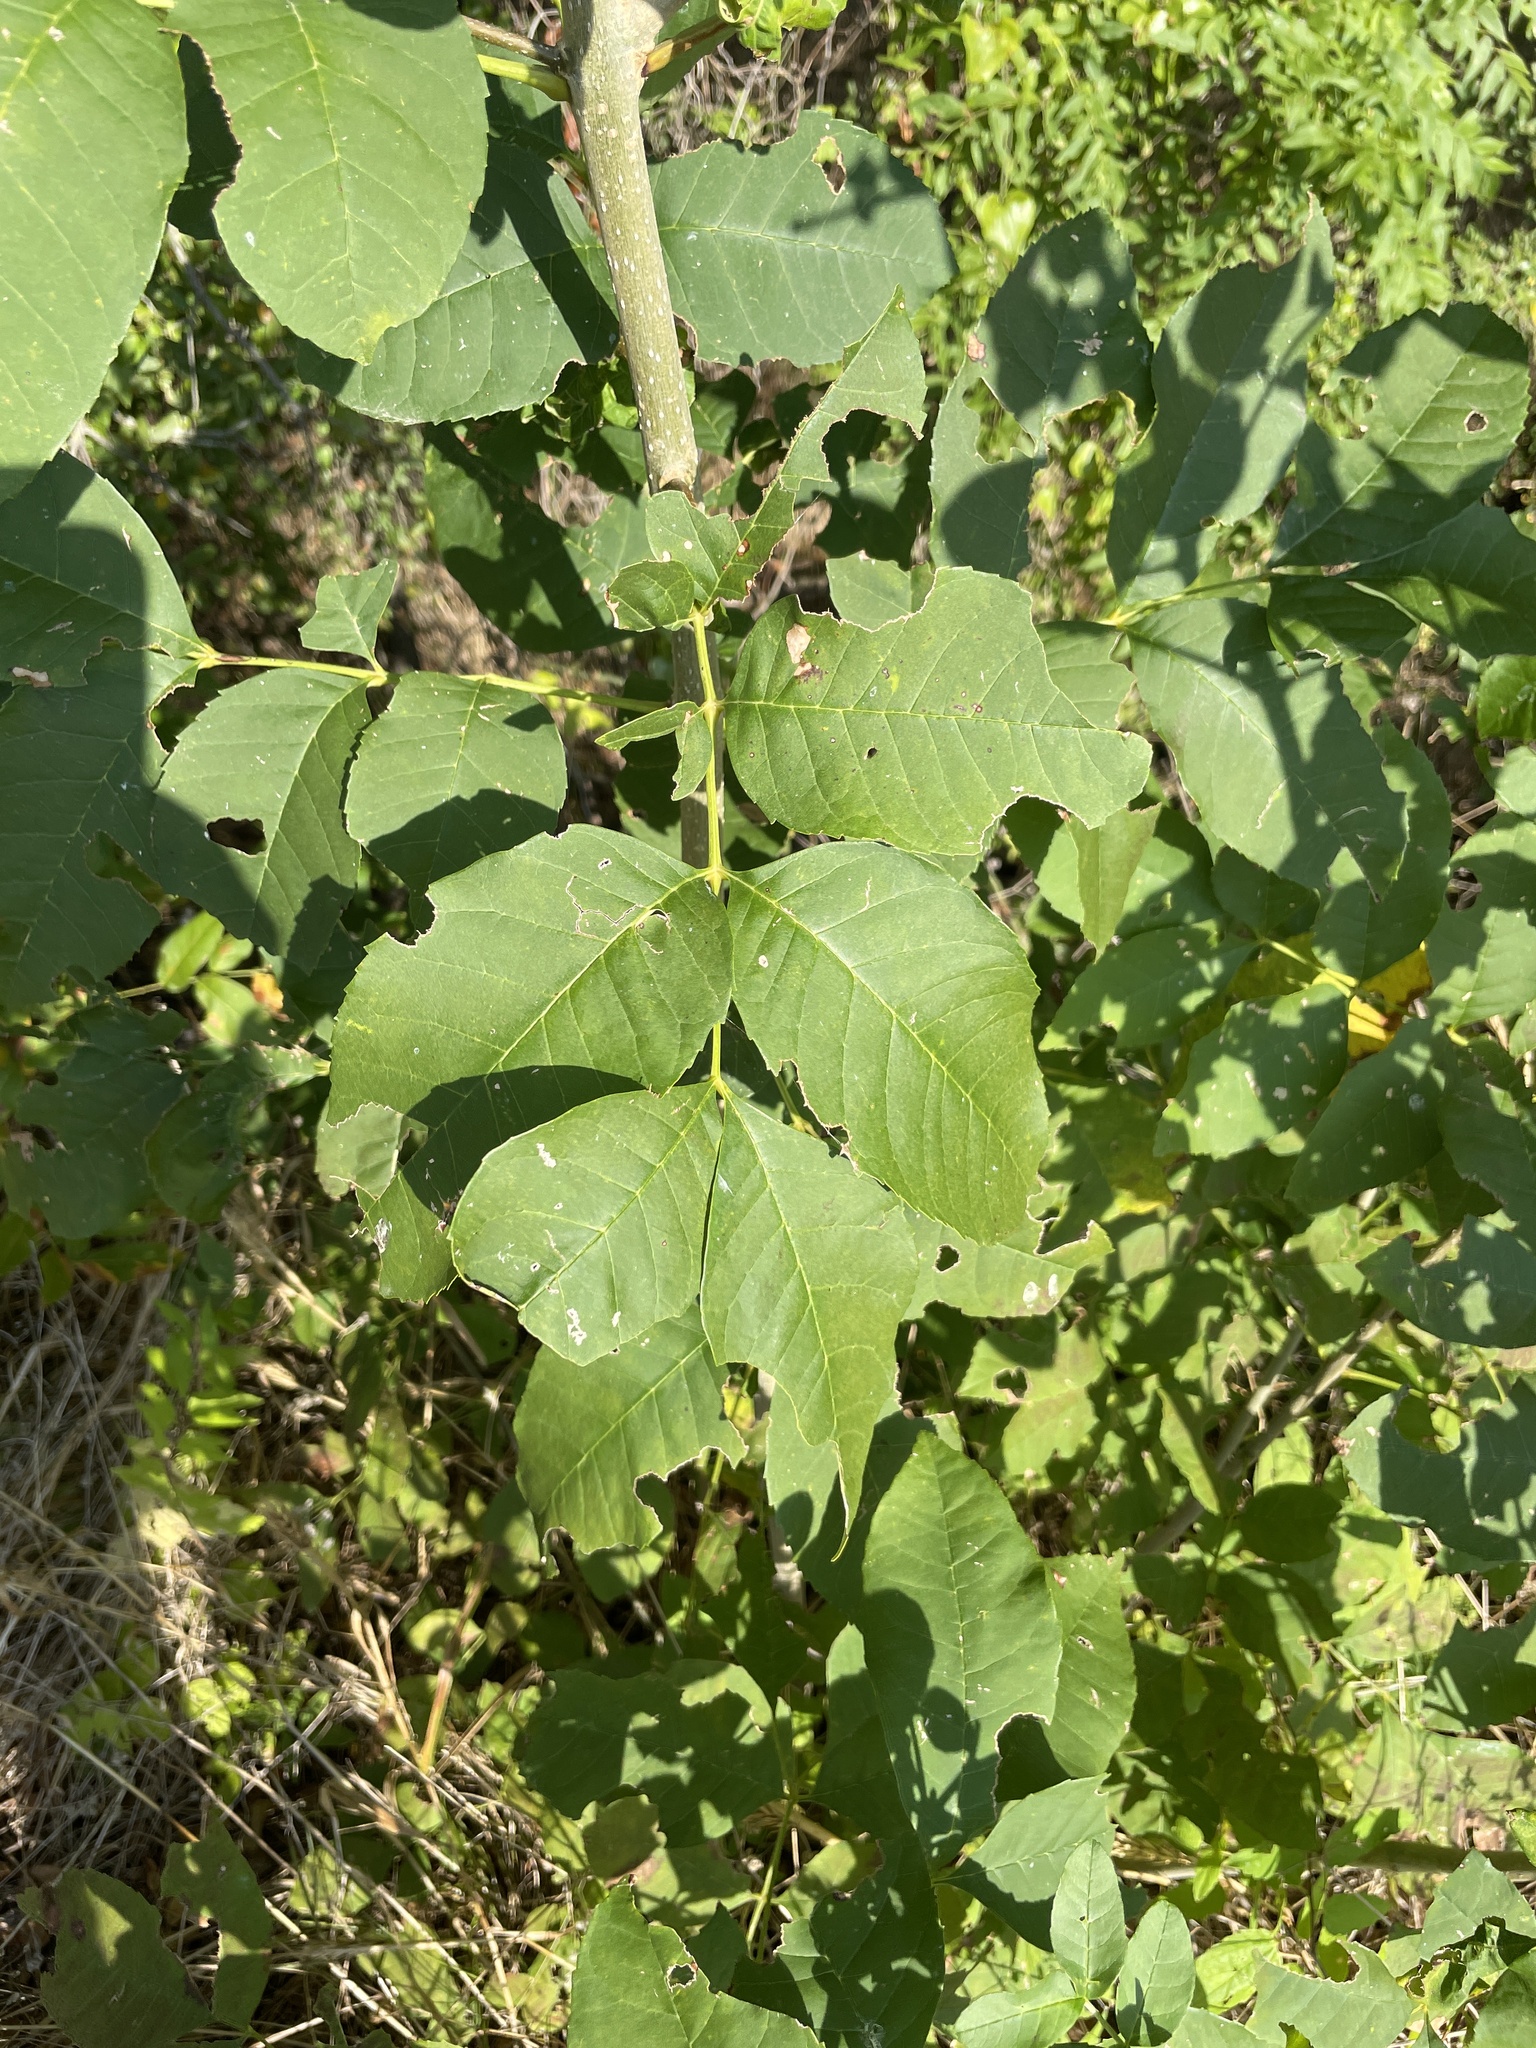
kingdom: Plantae
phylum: Tracheophyta
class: Magnoliopsida
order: Lamiales
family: Oleaceae
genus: Fraxinus
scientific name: Fraxinus pennsylvanica
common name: Green ash
